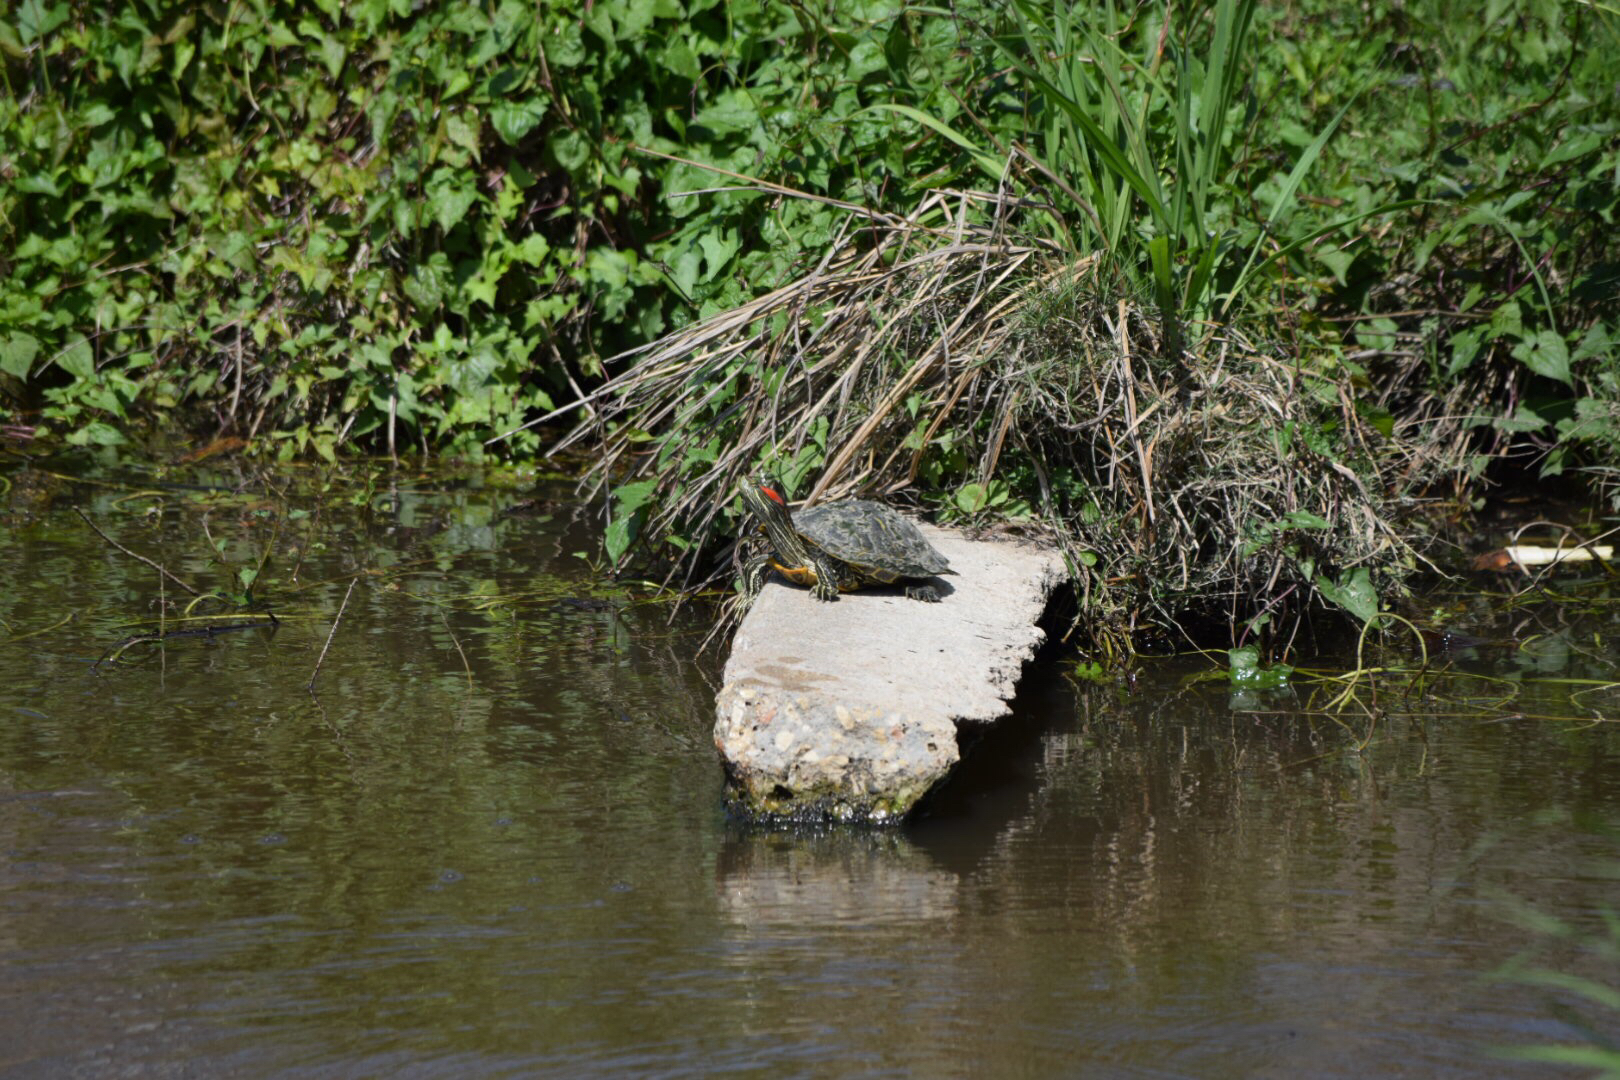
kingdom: Animalia
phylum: Chordata
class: Testudines
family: Emydidae
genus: Trachemys
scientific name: Trachemys scripta
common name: Slider
